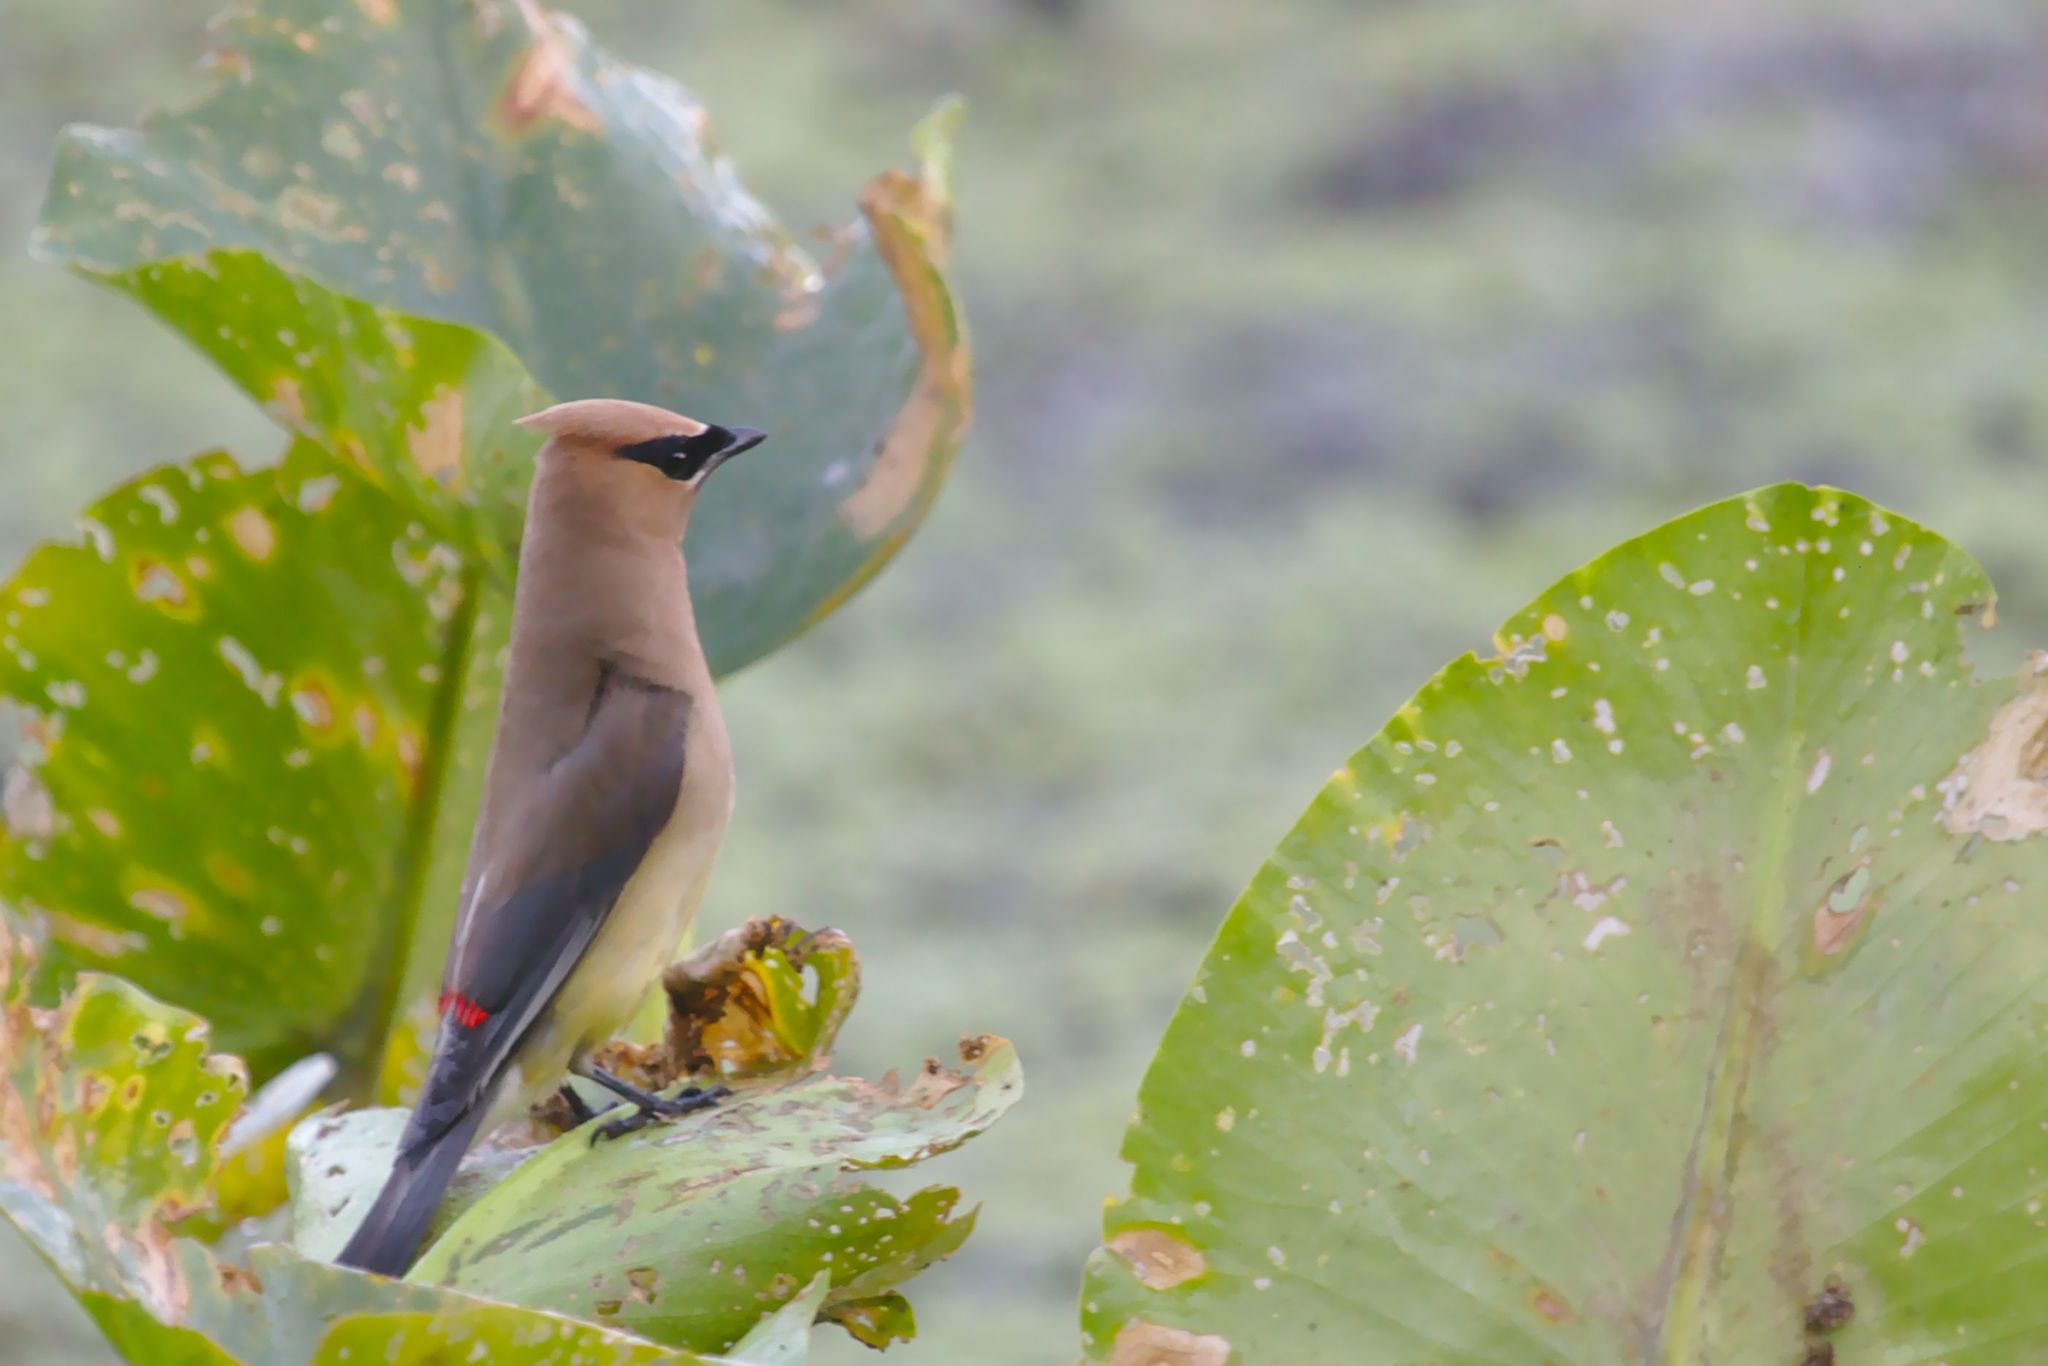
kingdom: Animalia
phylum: Chordata
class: Aves
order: Passeriformes
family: Bombycillidae
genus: Bombycilla
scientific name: Bombycilla cedrorum
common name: Cedar waxwing
